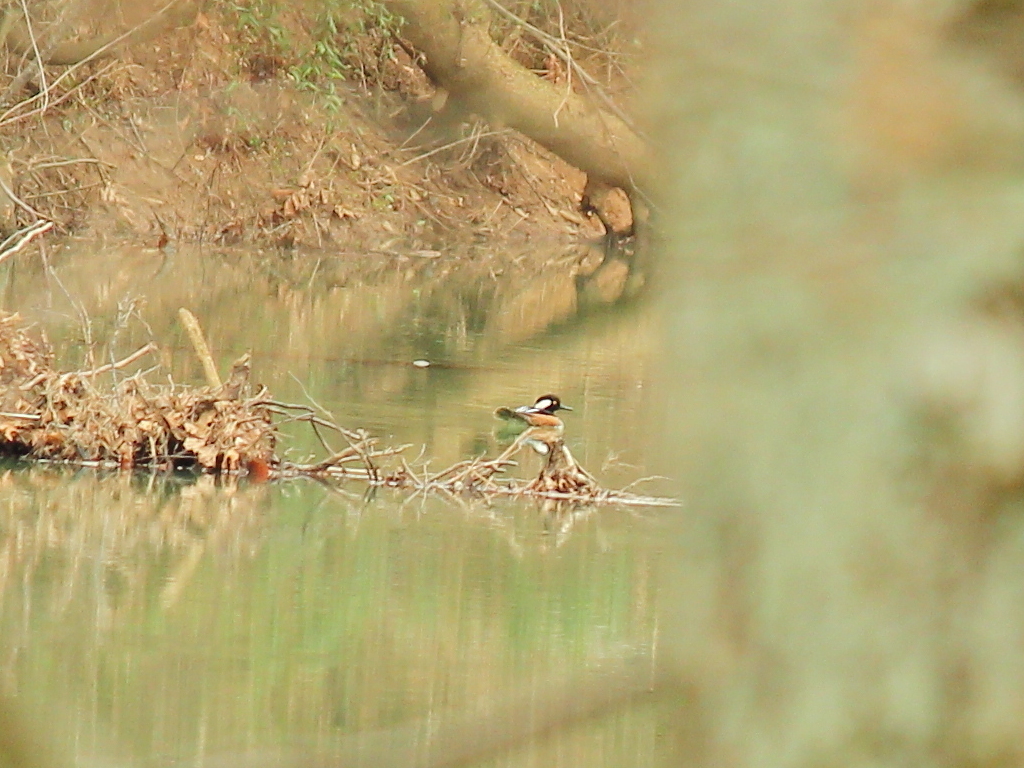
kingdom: Animalia
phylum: Chordata
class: Aves
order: Anseriformes
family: Anatidae
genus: Lophodytes
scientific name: Lophodytes cucullatus
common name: Hooded merganser
